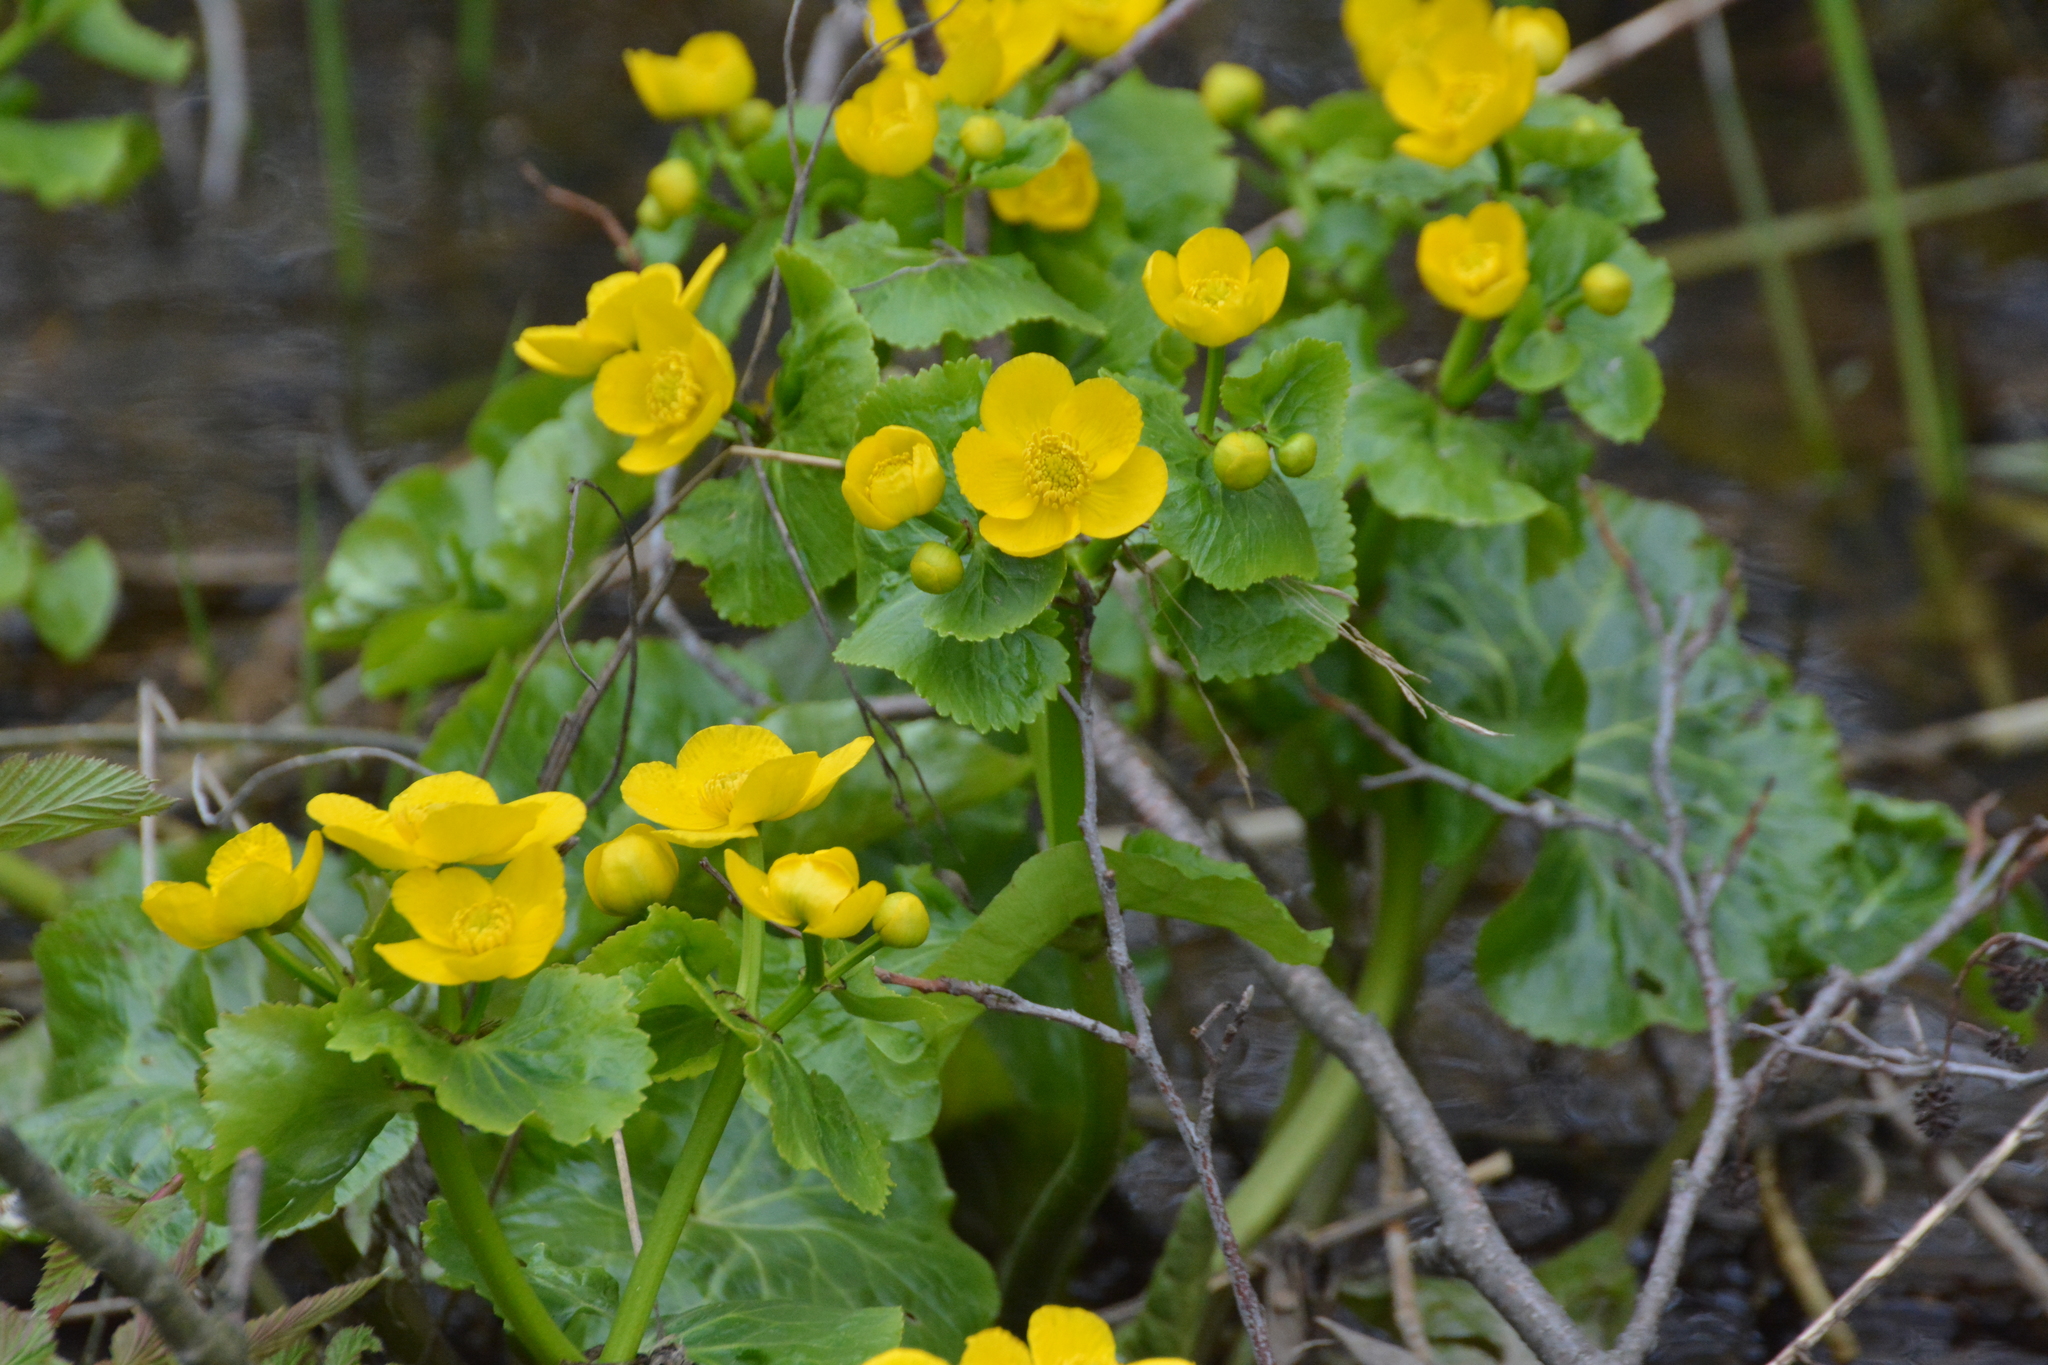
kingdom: Plantae
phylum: Tracheophyta
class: Magnoliopsida
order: Ranunculales
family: Ranunculaceae
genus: Caltha
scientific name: Caltha palustris
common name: Marsh marigold
